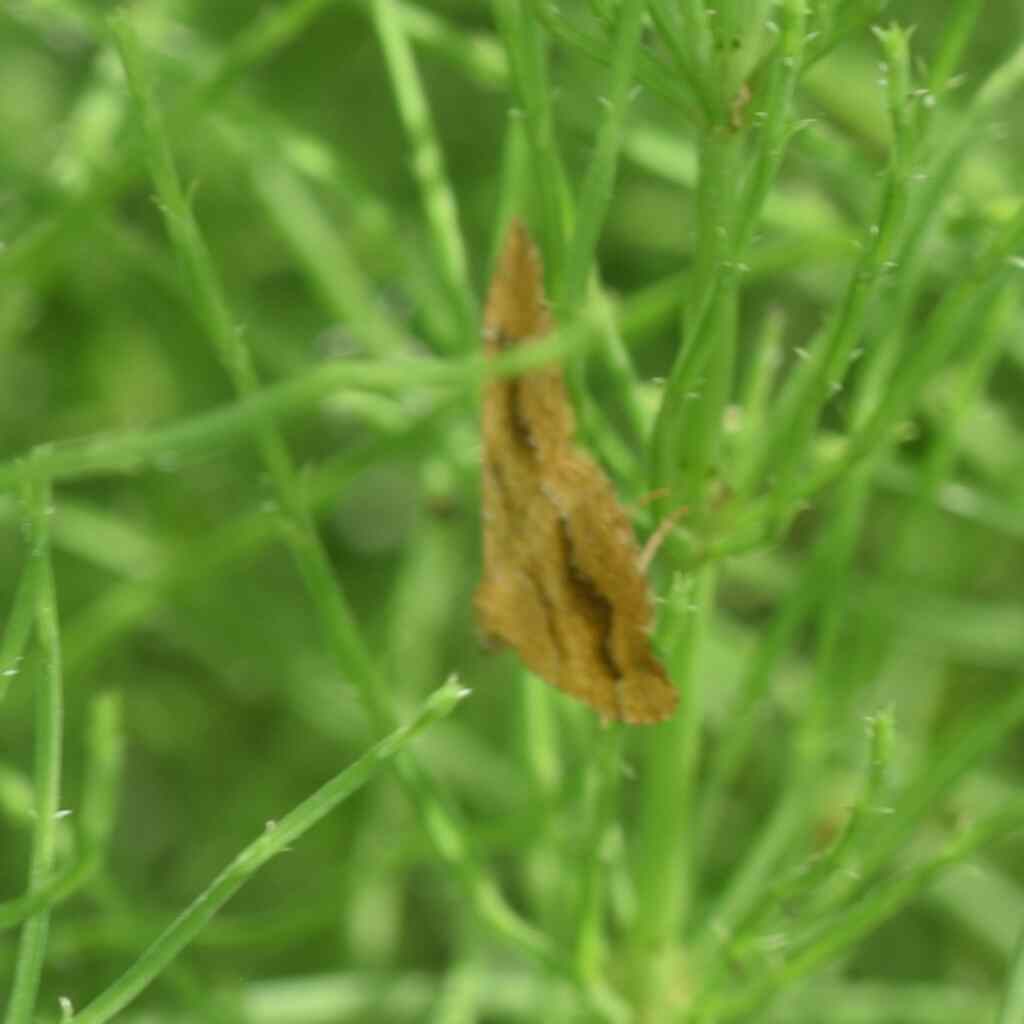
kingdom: Animalia
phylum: Arthropoda
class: Insecta
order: Lepidoptera
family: Geometridae
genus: Camptogramma
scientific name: Camptogramma bilineata
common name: Yellow shell
